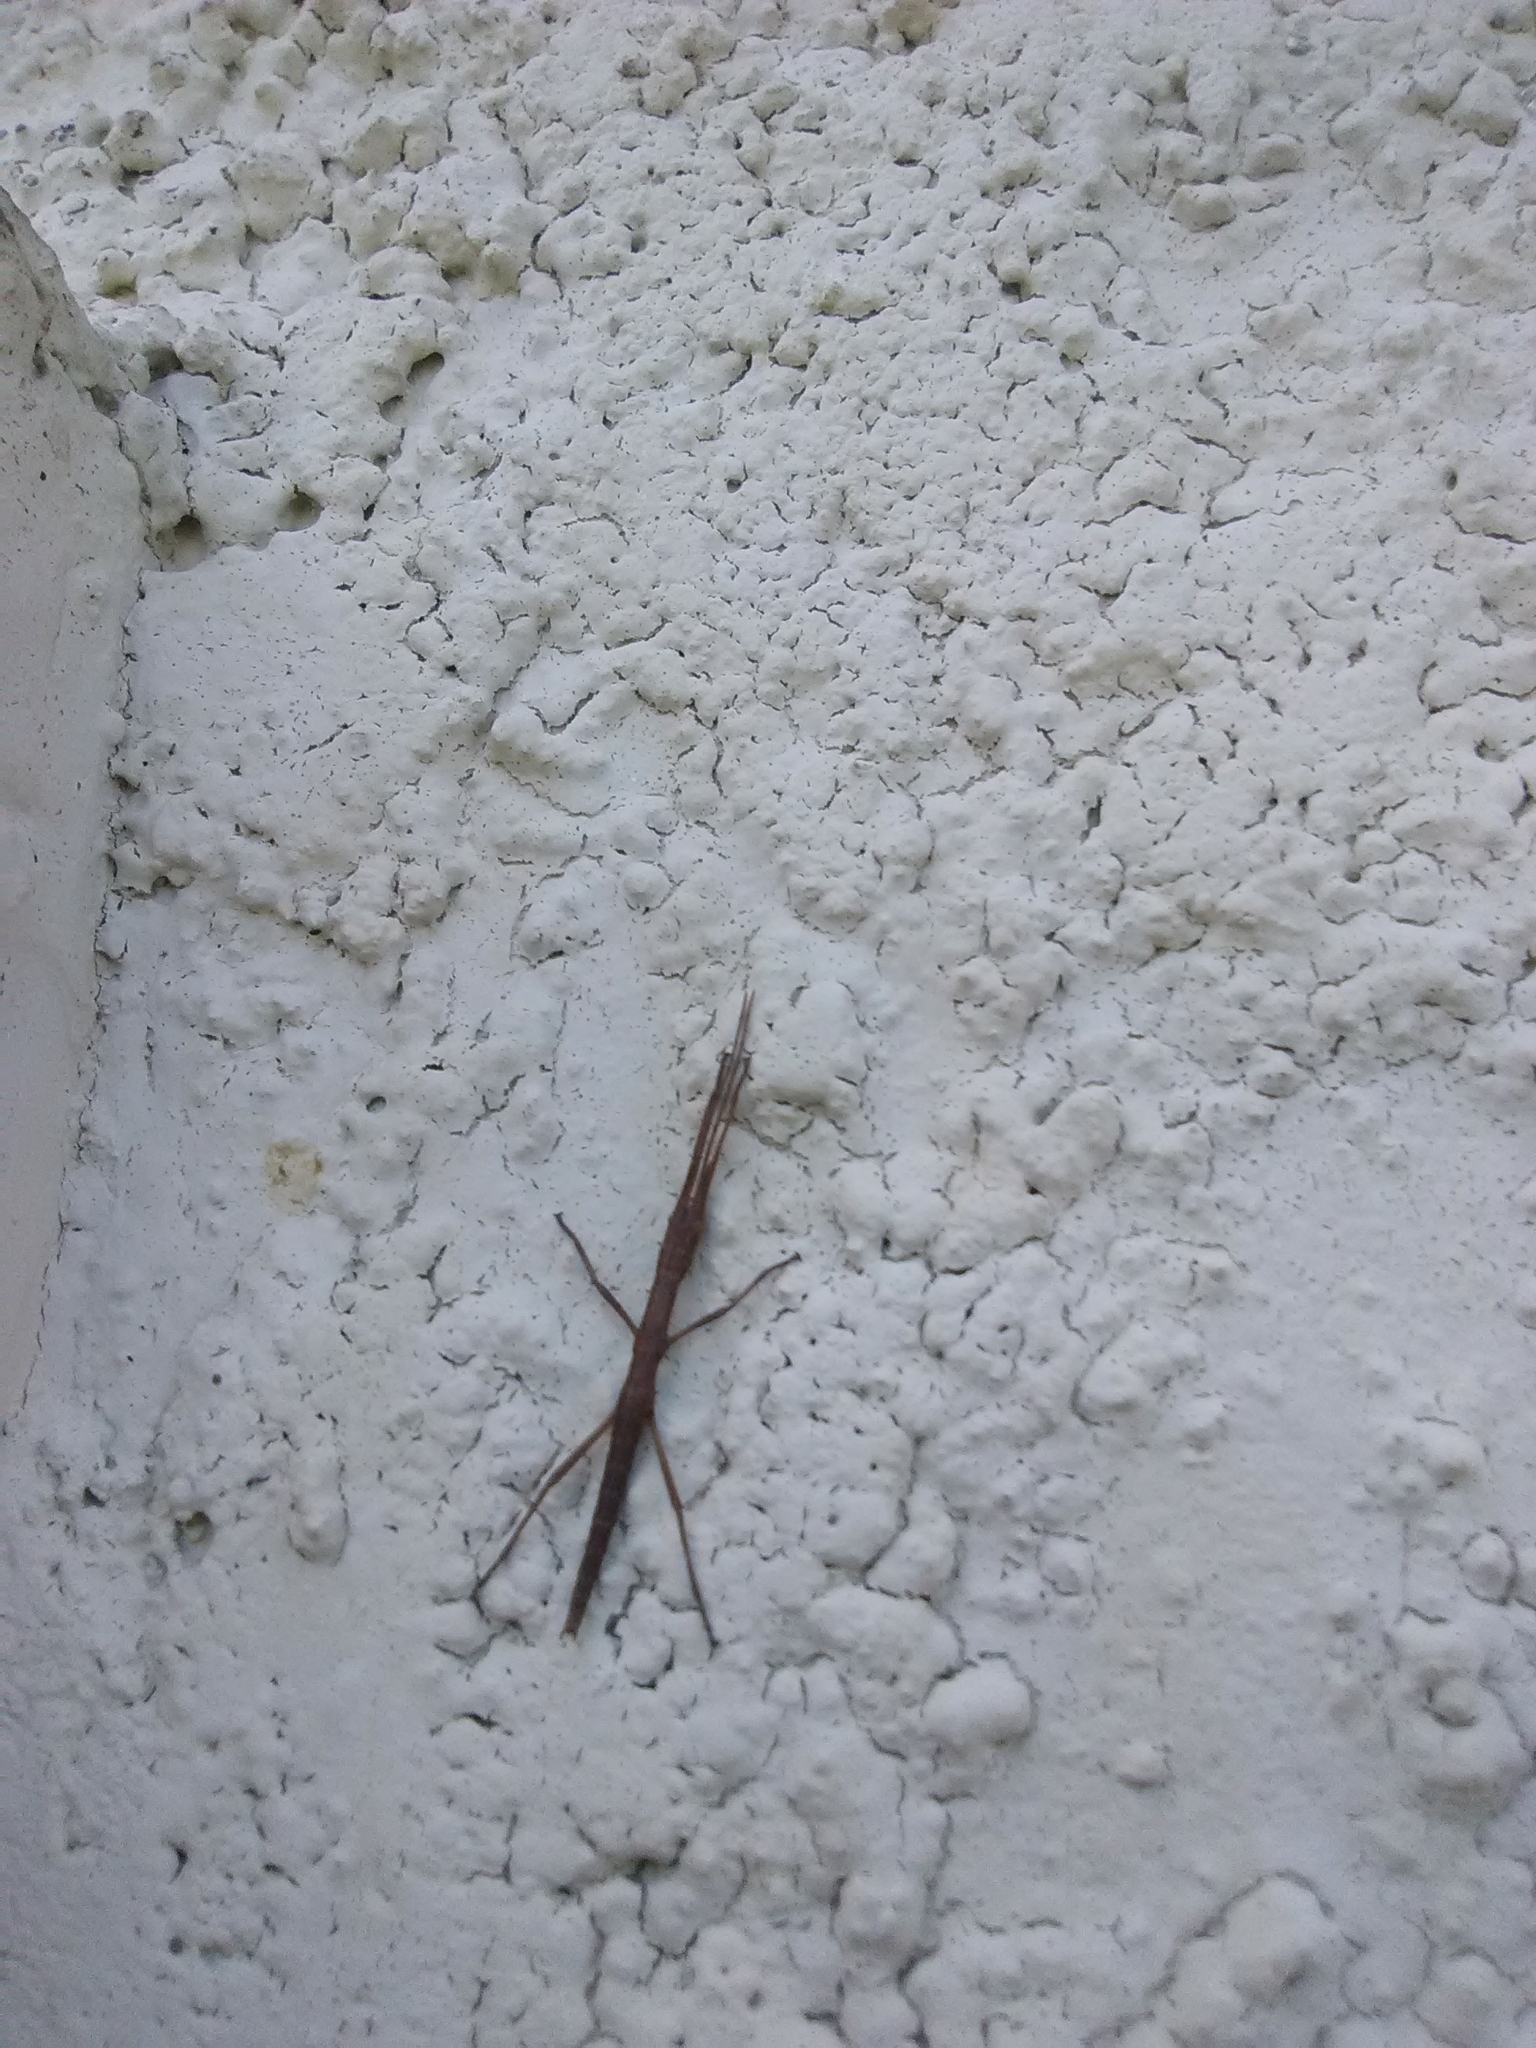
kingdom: Animalia
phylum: Arthropoda
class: Insecta
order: Phasmida
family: Pseudophasmatidae
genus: Anisomorpha
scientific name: Anisomorpha buprestoides
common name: Florida stick insect
